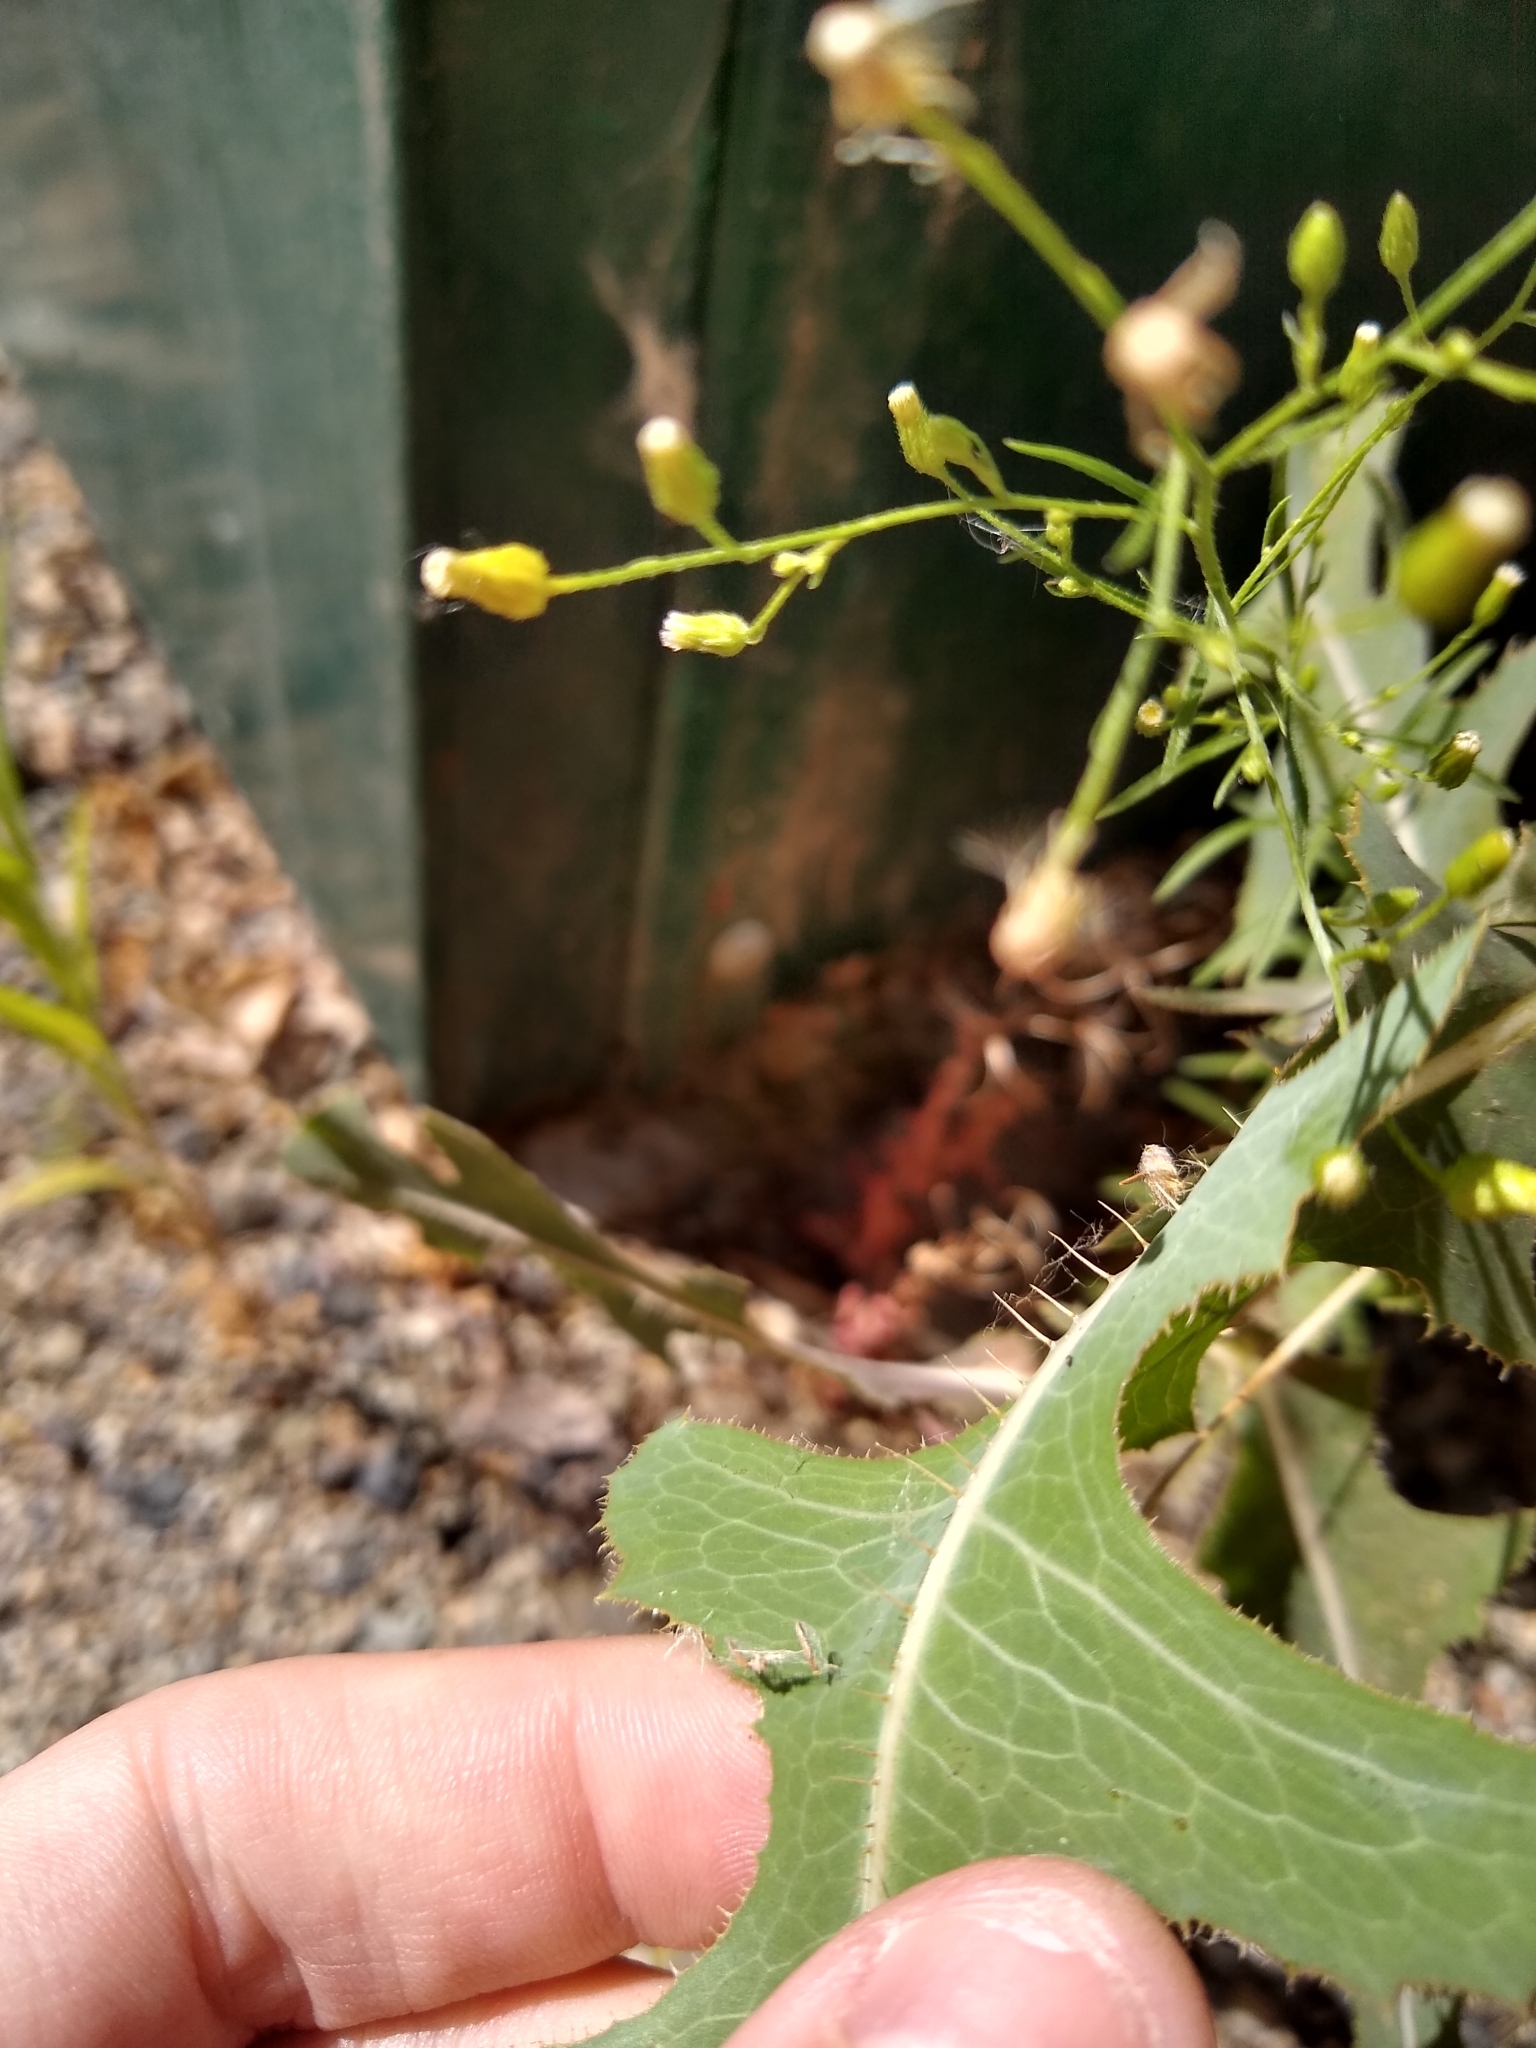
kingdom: Plantae
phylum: Tracheophyta
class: Magnoliopsida
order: Asterales
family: Asteraceae
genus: Lactuca
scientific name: Lactuca serriola
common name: Prickly lettuce
